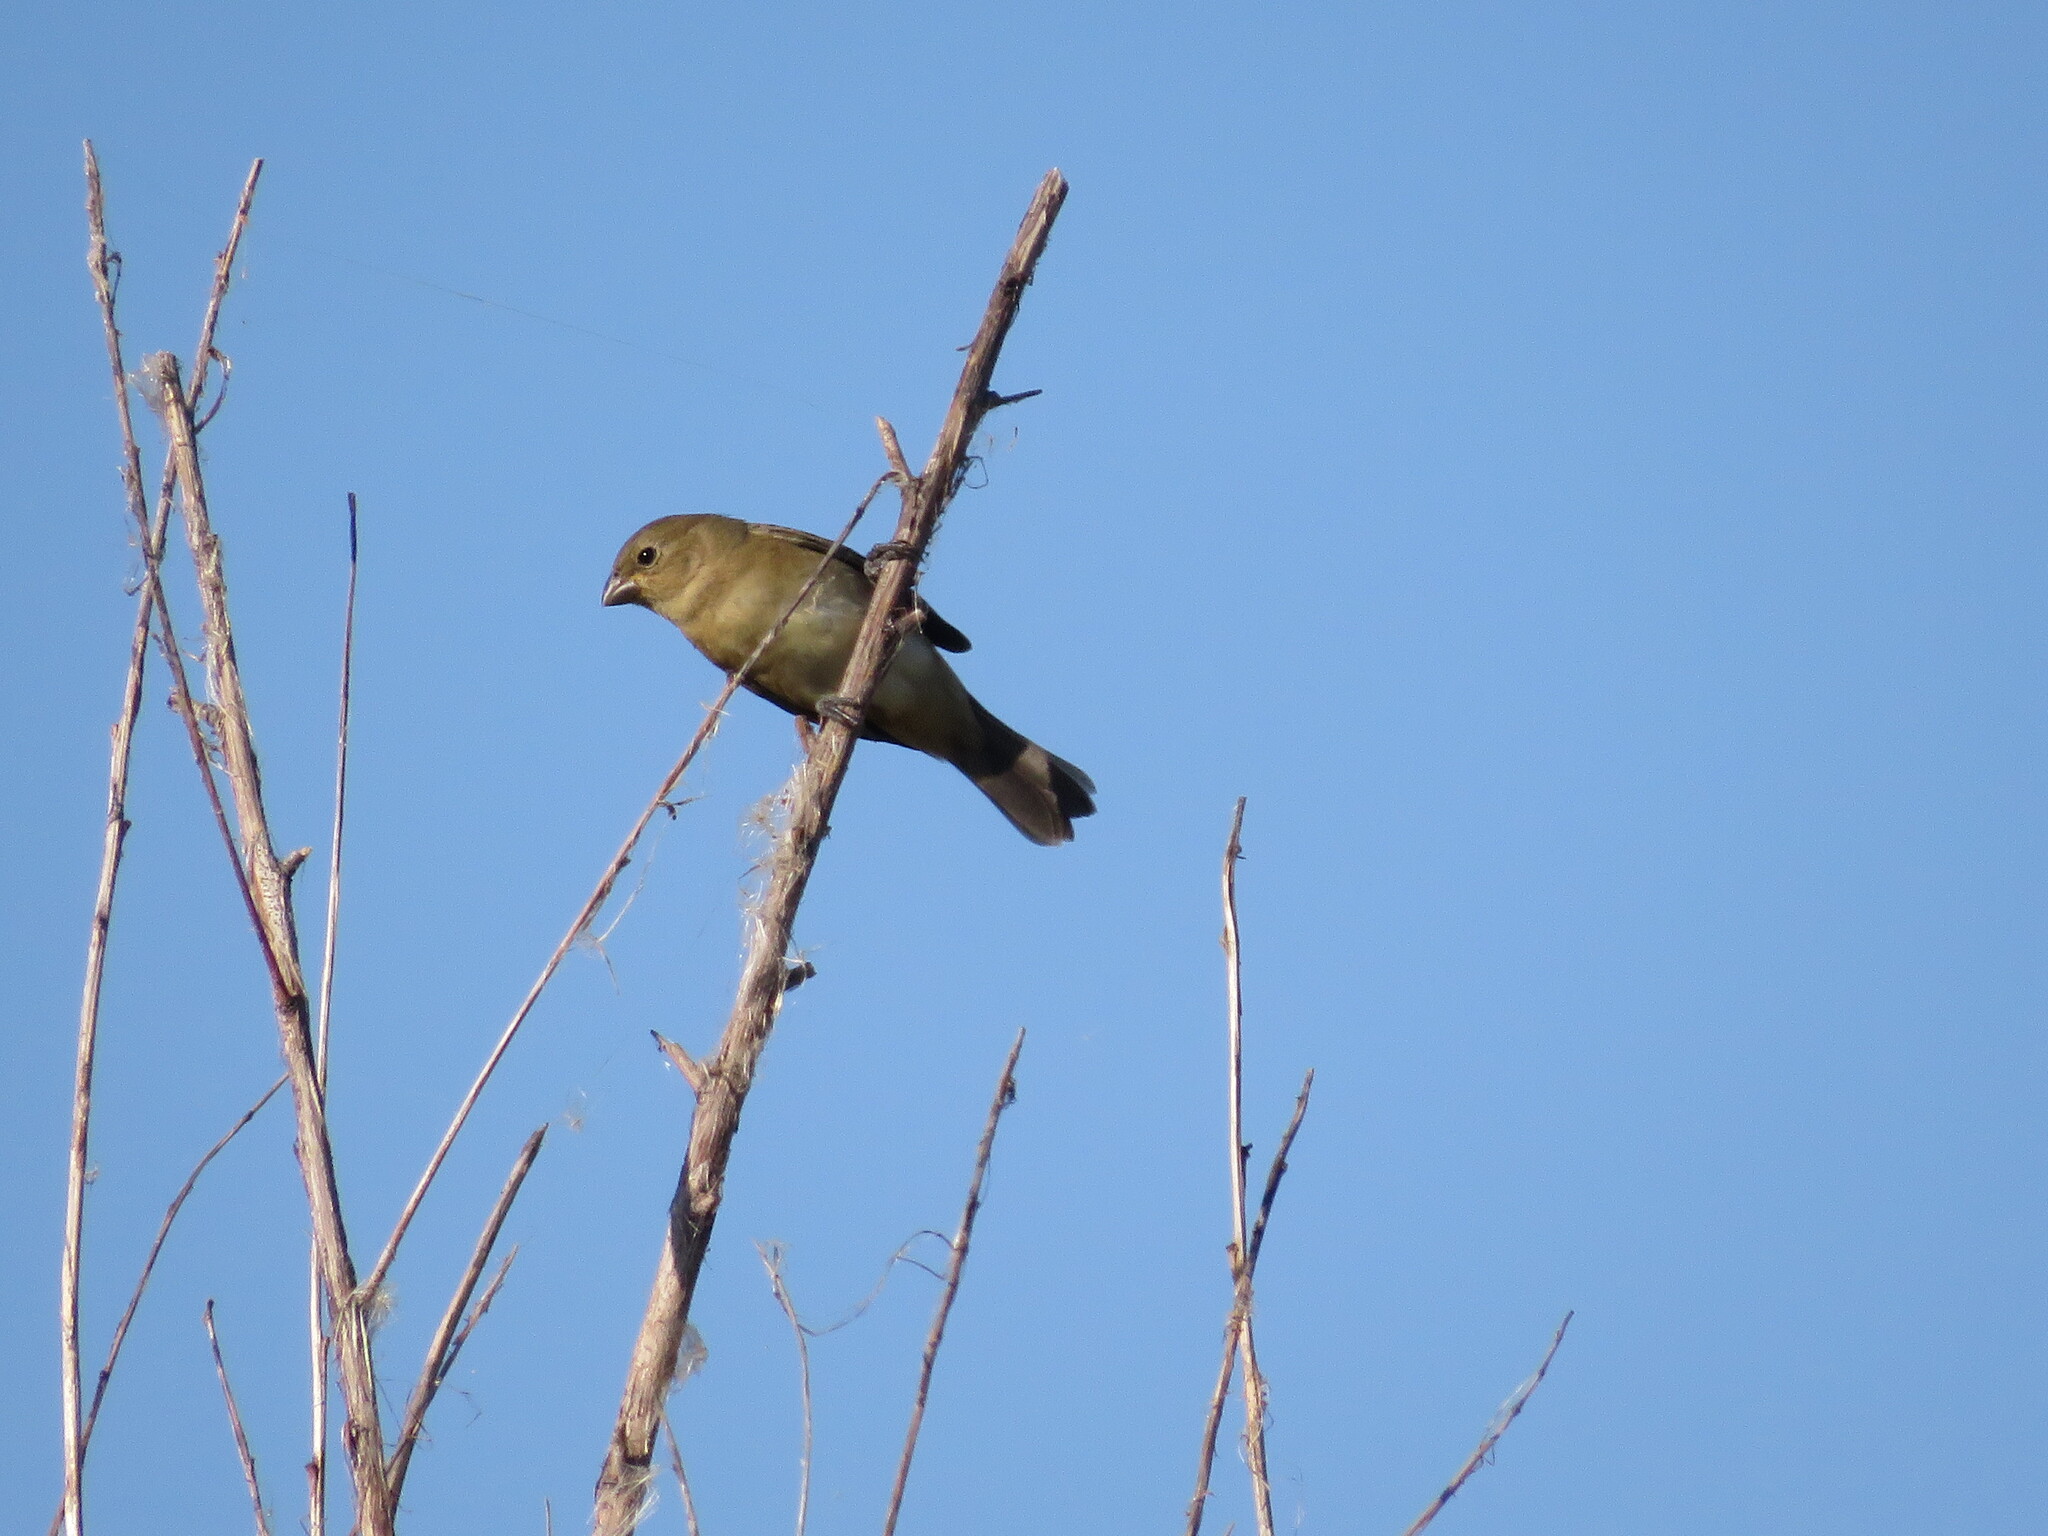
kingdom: Animalia
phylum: Chordata
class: Aves
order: Passeriformes
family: Thraupidae
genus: Sporophila
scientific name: Sporophila caerulescens
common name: Double-collared seedeater
